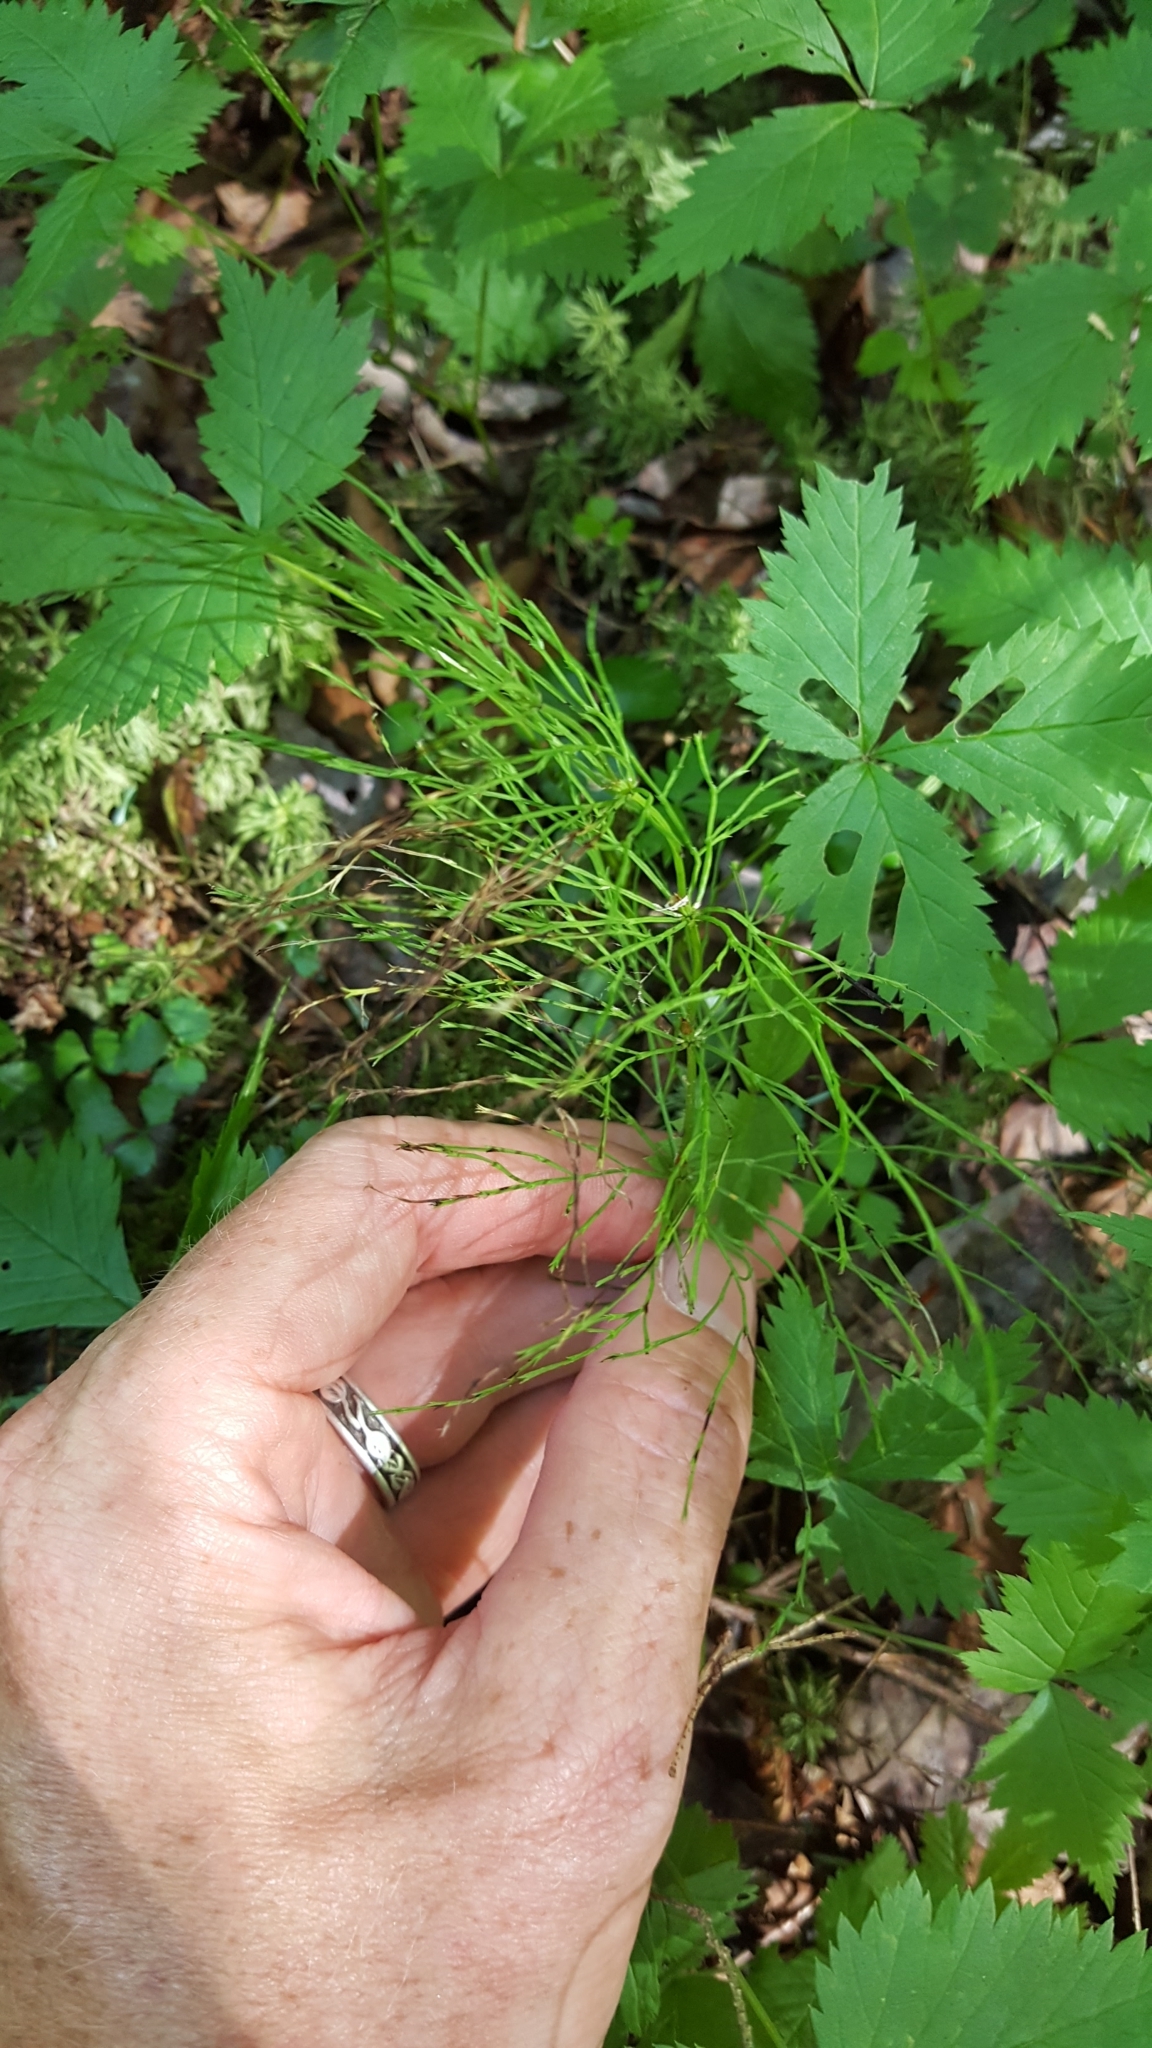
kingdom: Plantae
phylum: Tracheophyta
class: Polypodiopsida
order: Equisetales
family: Equisetaceae
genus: Equisetum
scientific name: Equisetum sylvaticum
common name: Wood horsetail
